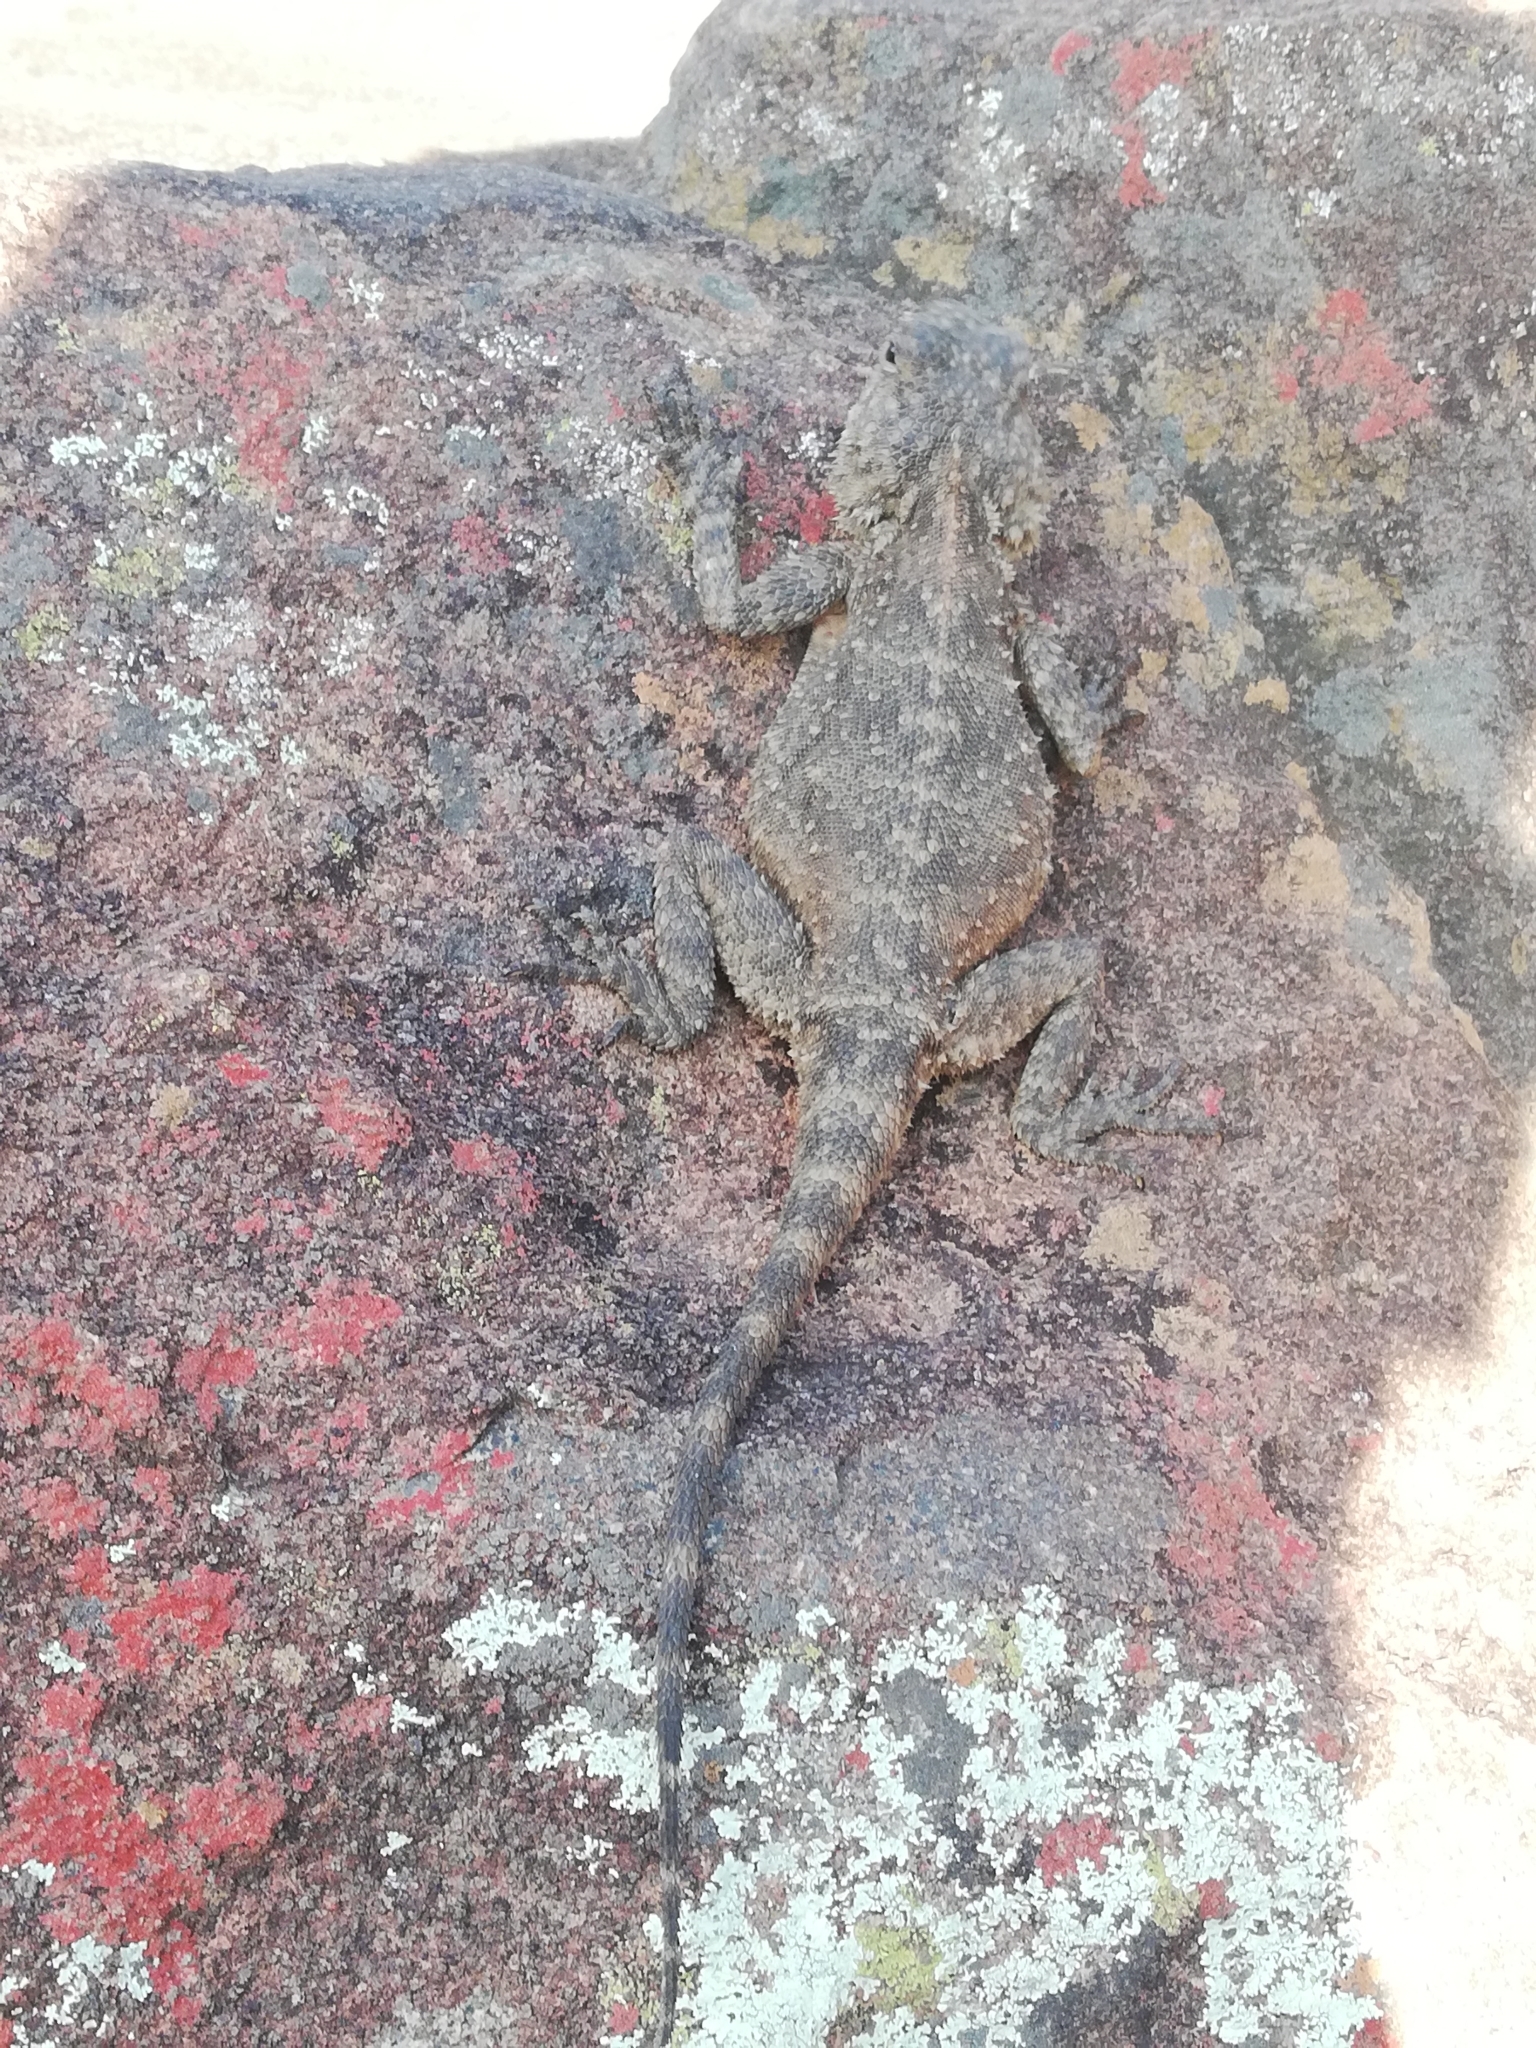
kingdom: Animalia
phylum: Chordata
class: Squamata
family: Agamidae
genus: Agama
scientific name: Agama atra
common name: Southern african rock agama
